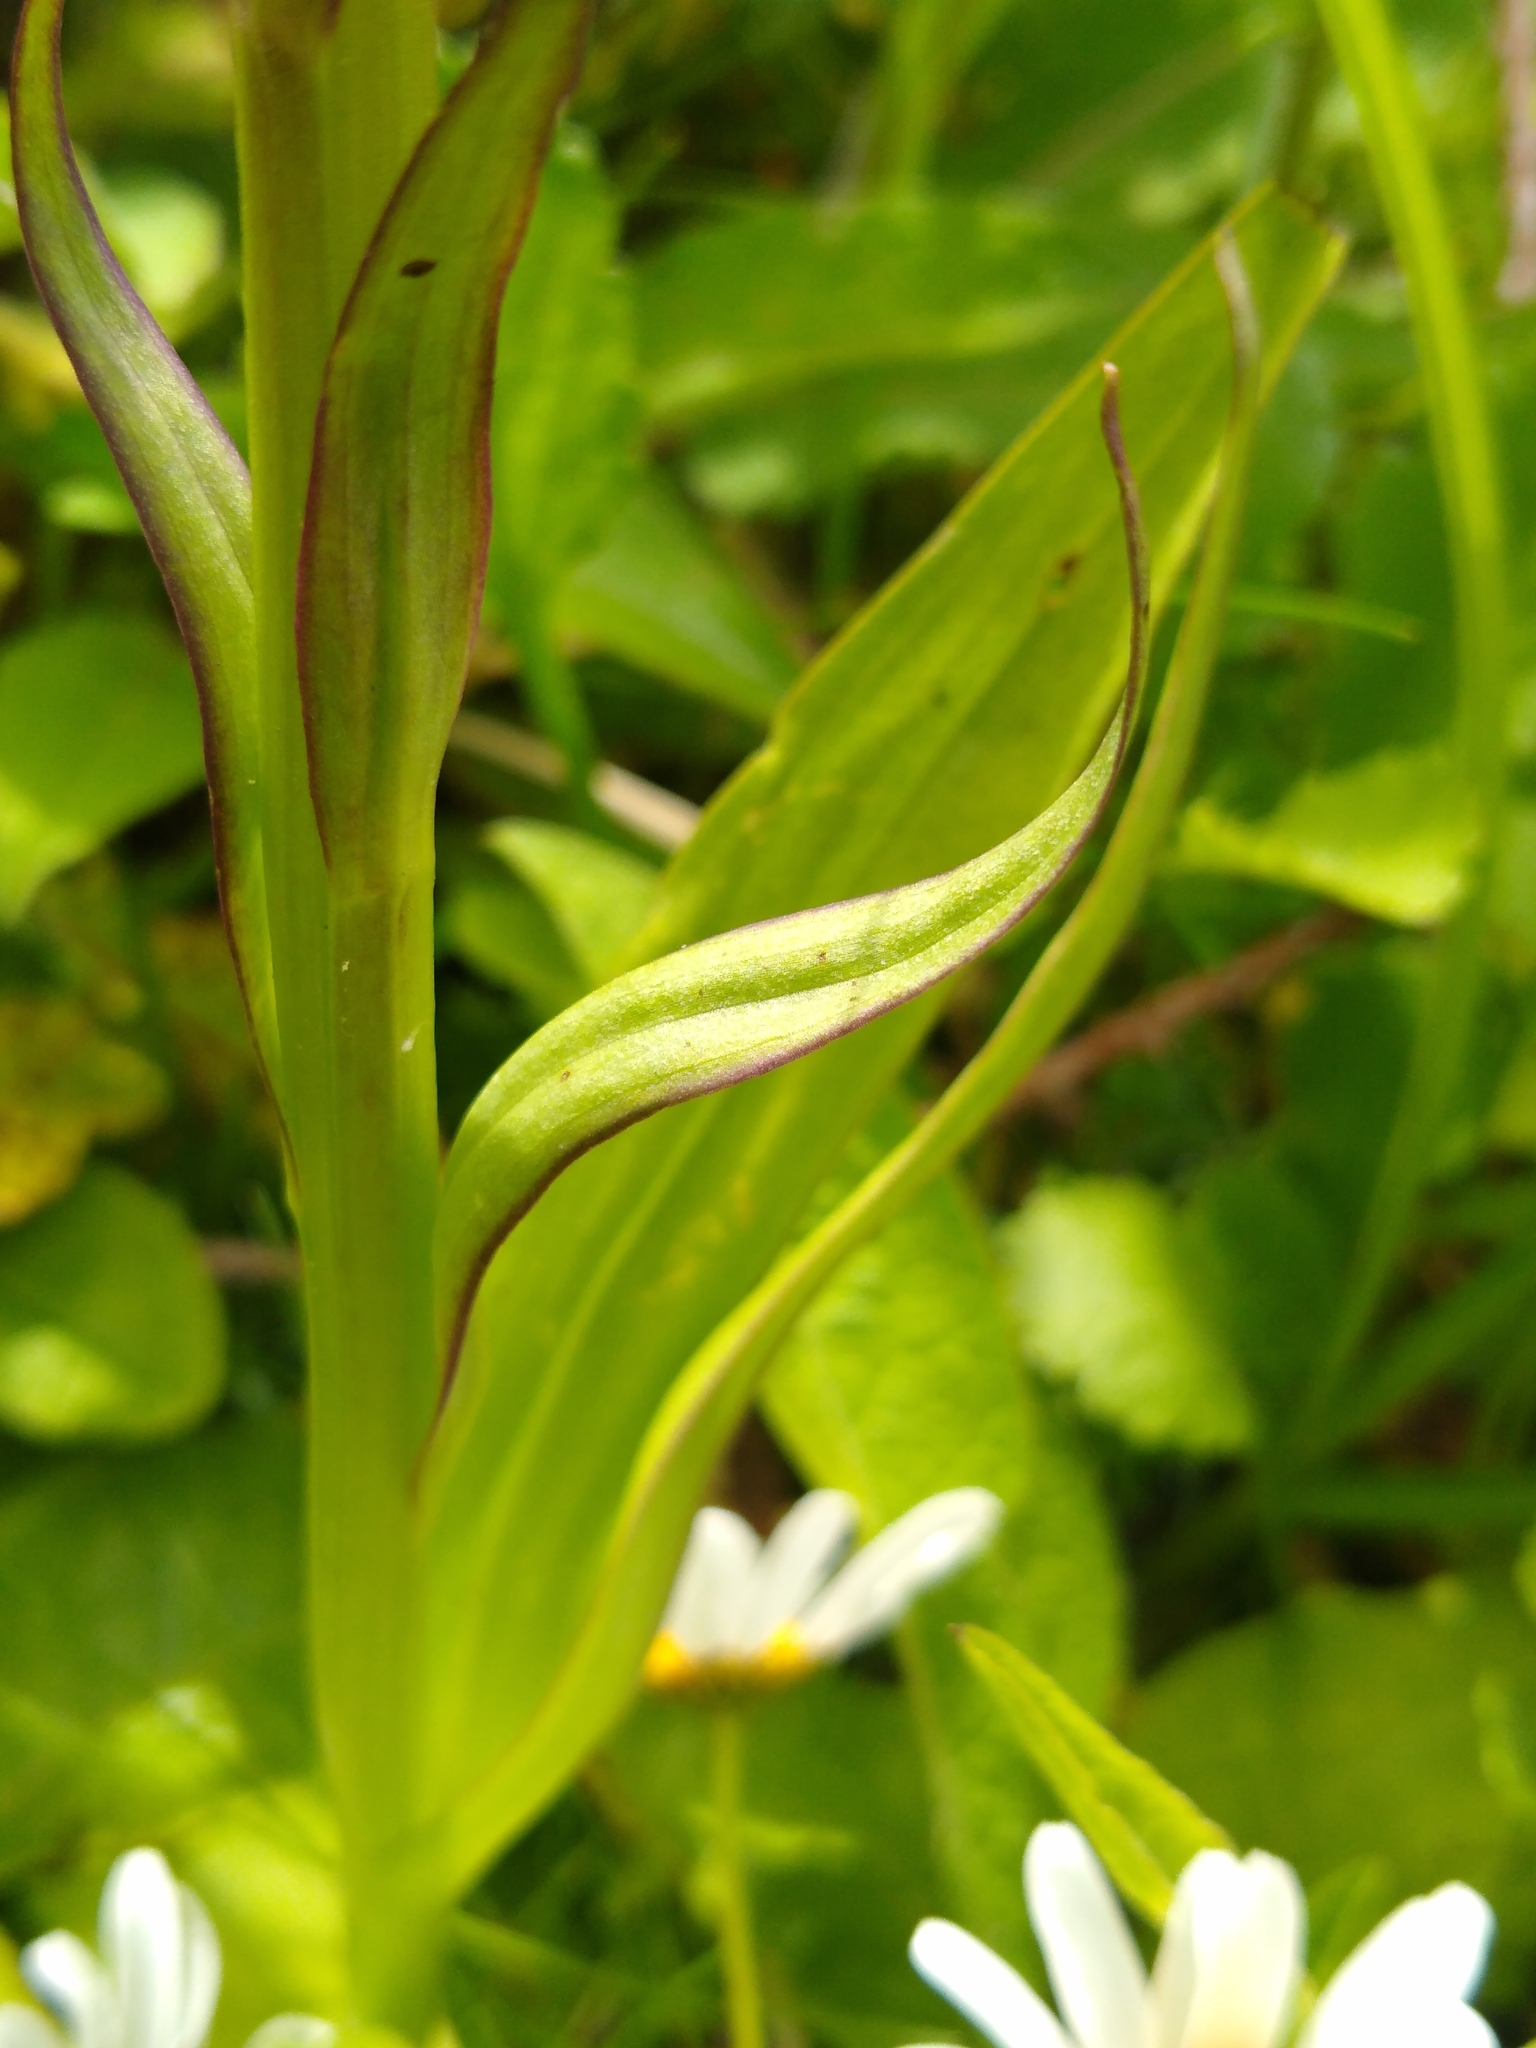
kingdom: Plantae
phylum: Tracheophyta
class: Liliopsida
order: Asparagales
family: Orchidaceae
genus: Dactylorhiza
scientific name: Dactylorhiza majalis
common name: Marsh orchid
